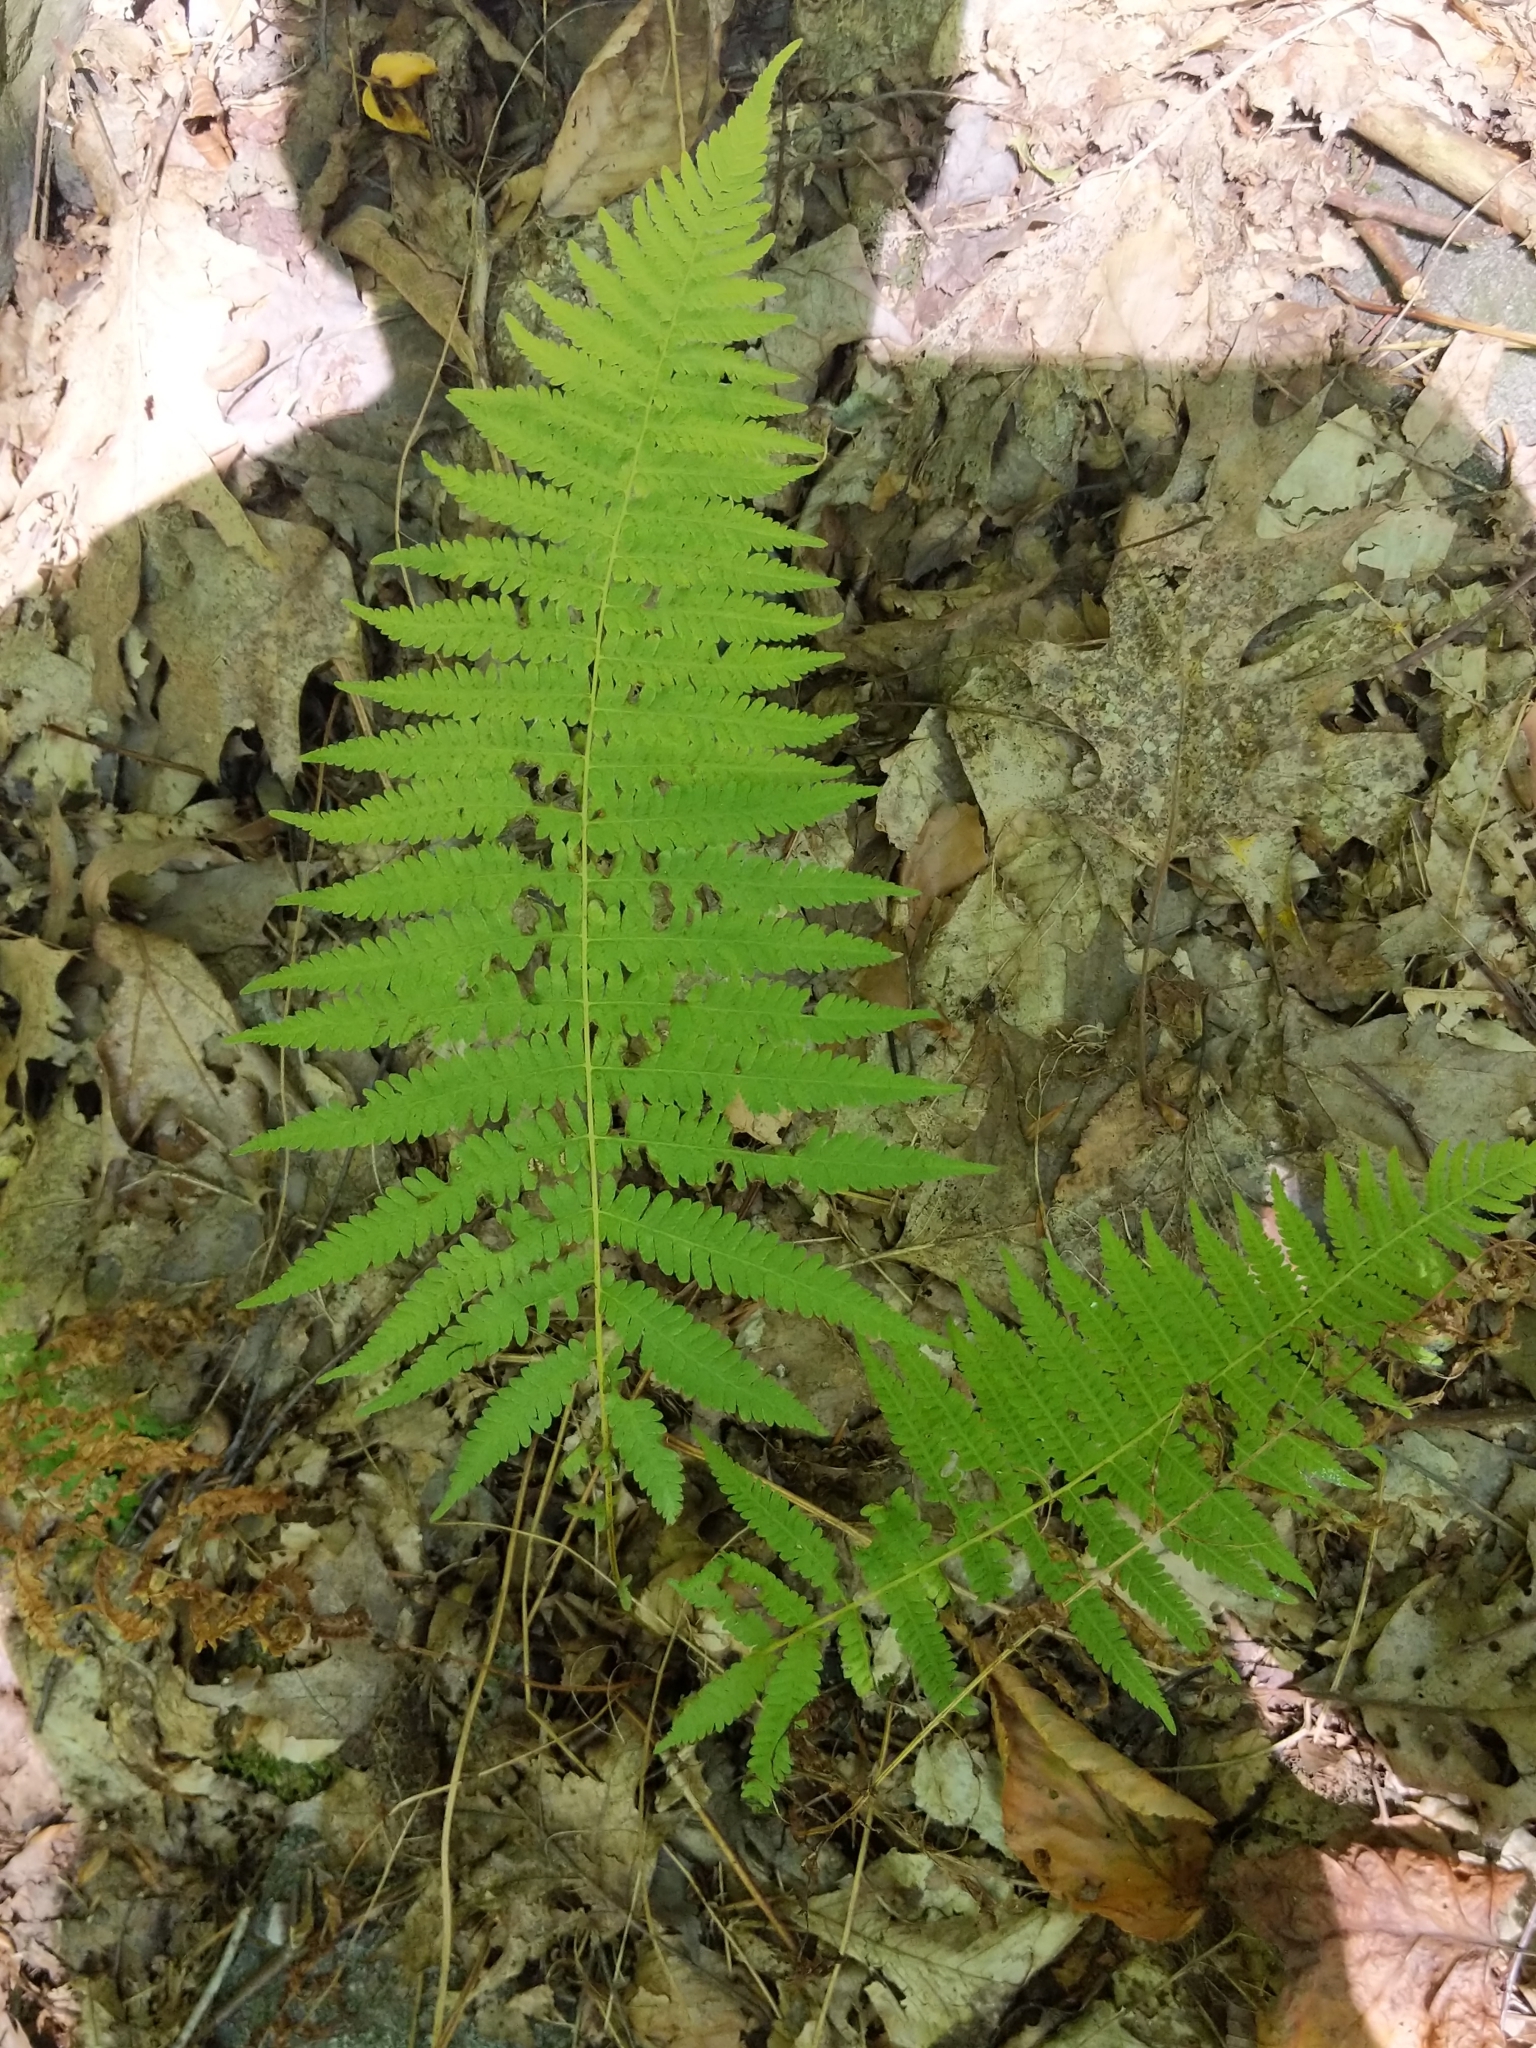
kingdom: Plantae
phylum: Tracheophyta
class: Polypodiopsida
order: Polypodiales
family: Thelypteridaceae
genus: Amauropelta
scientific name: Amauropelta noveboracensis
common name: New york fern
